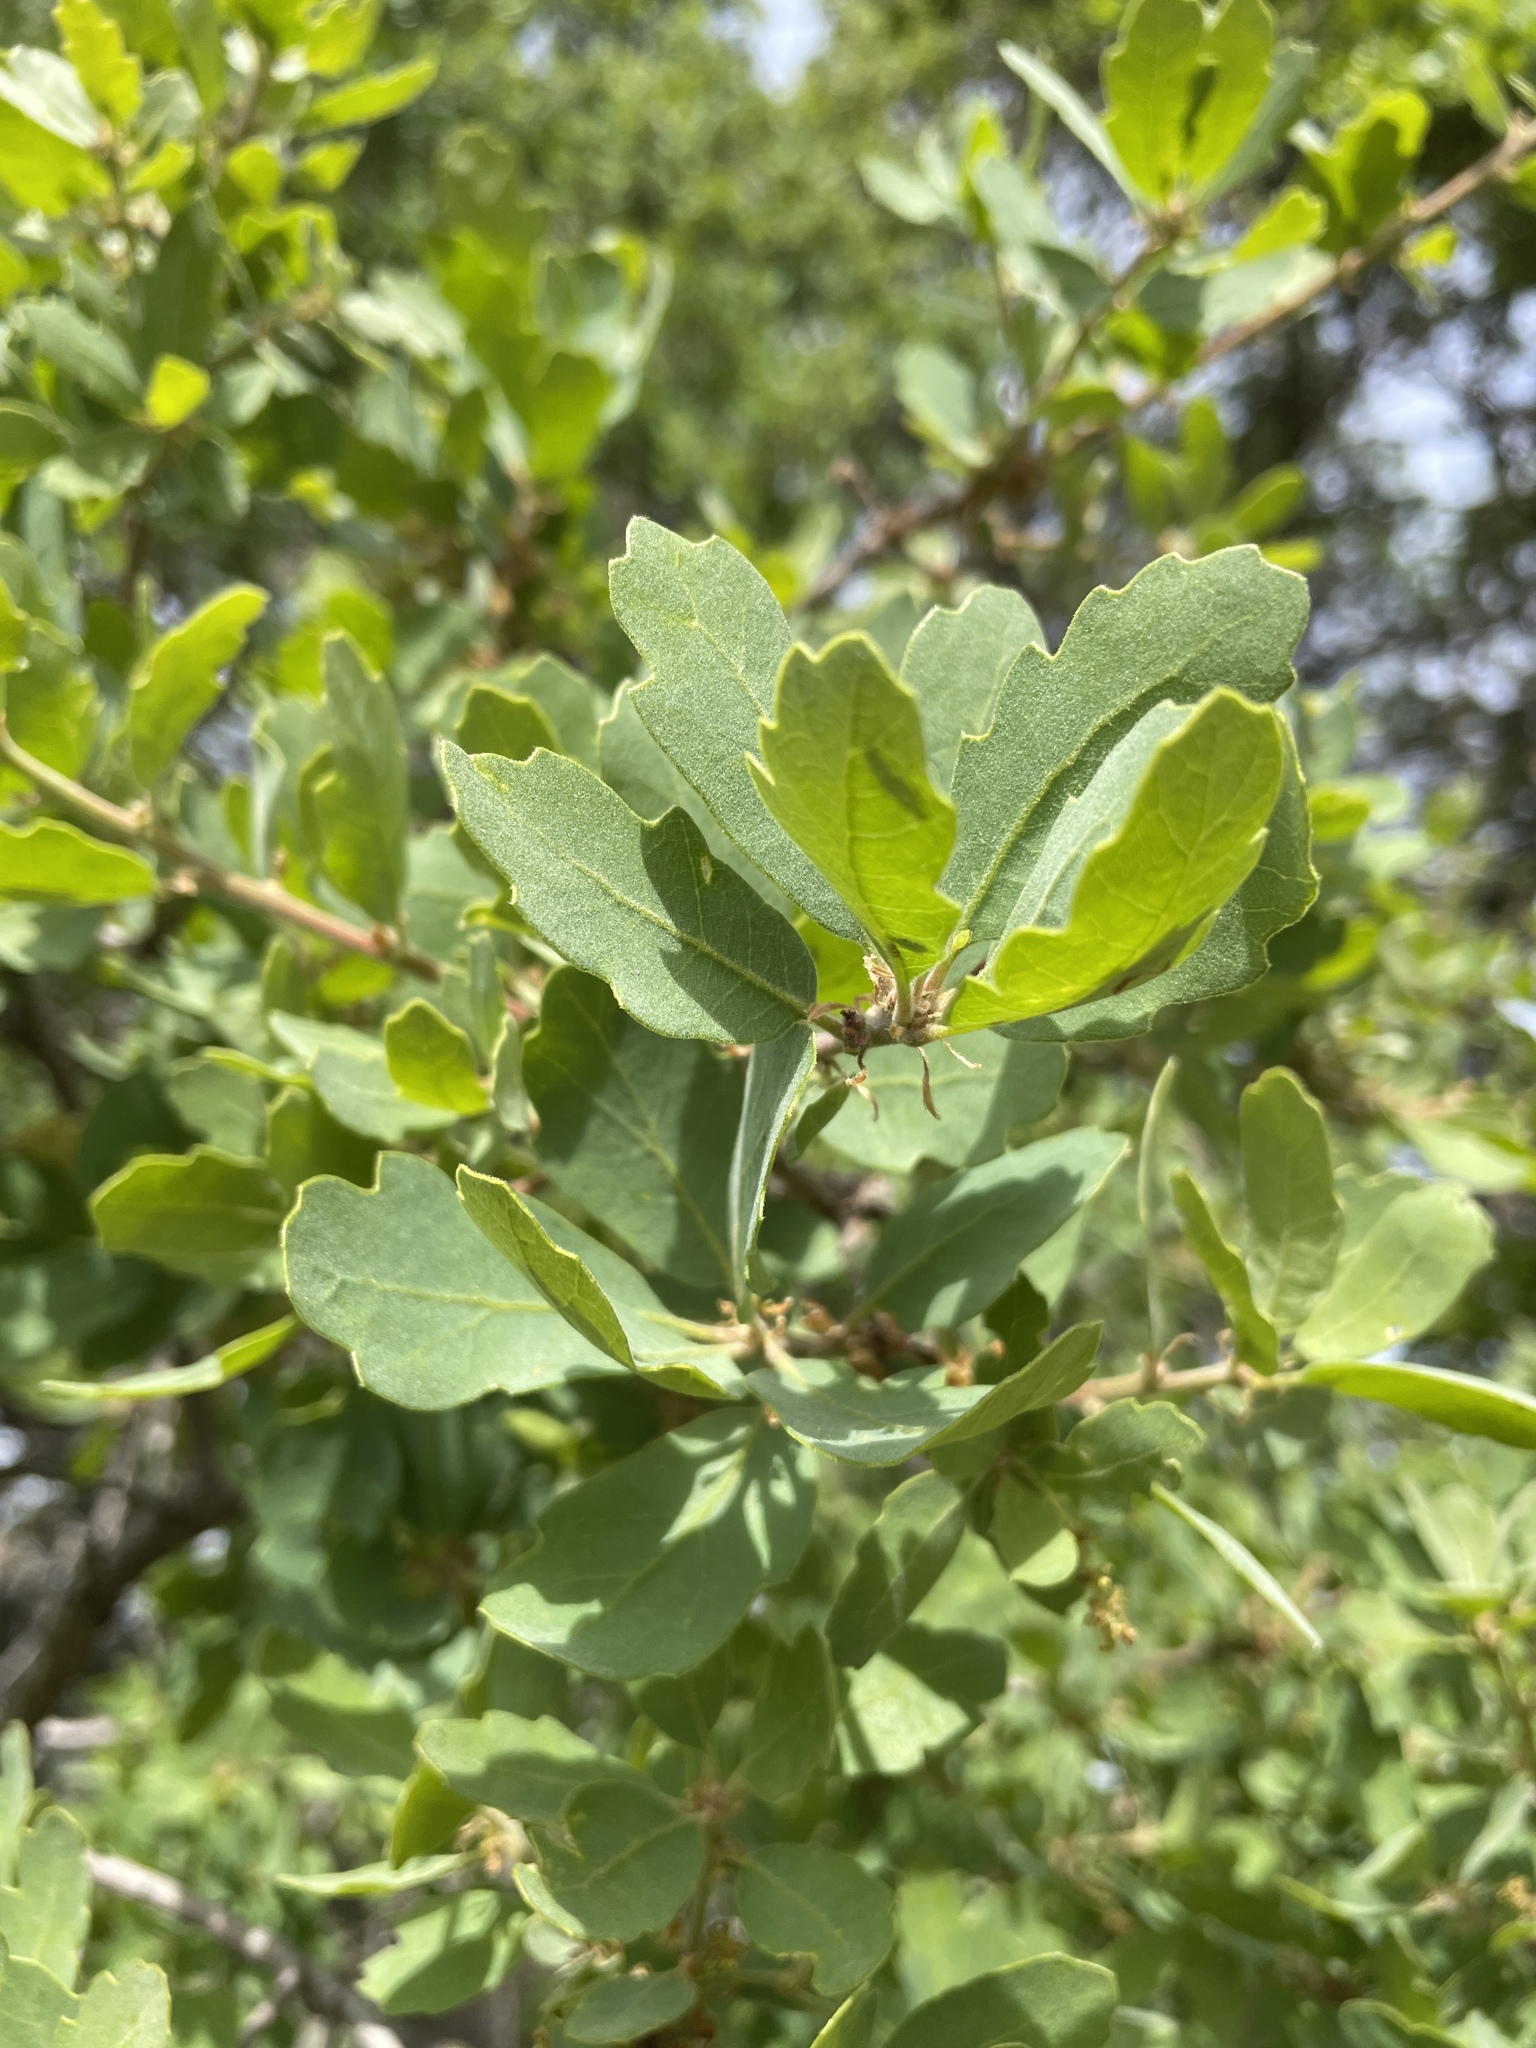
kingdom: Plantae
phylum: Tracheophyta
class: Magnoliopsida
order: Fagales
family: Fagaceae
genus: Quercus
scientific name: Quercus douglasii
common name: Blue oak
